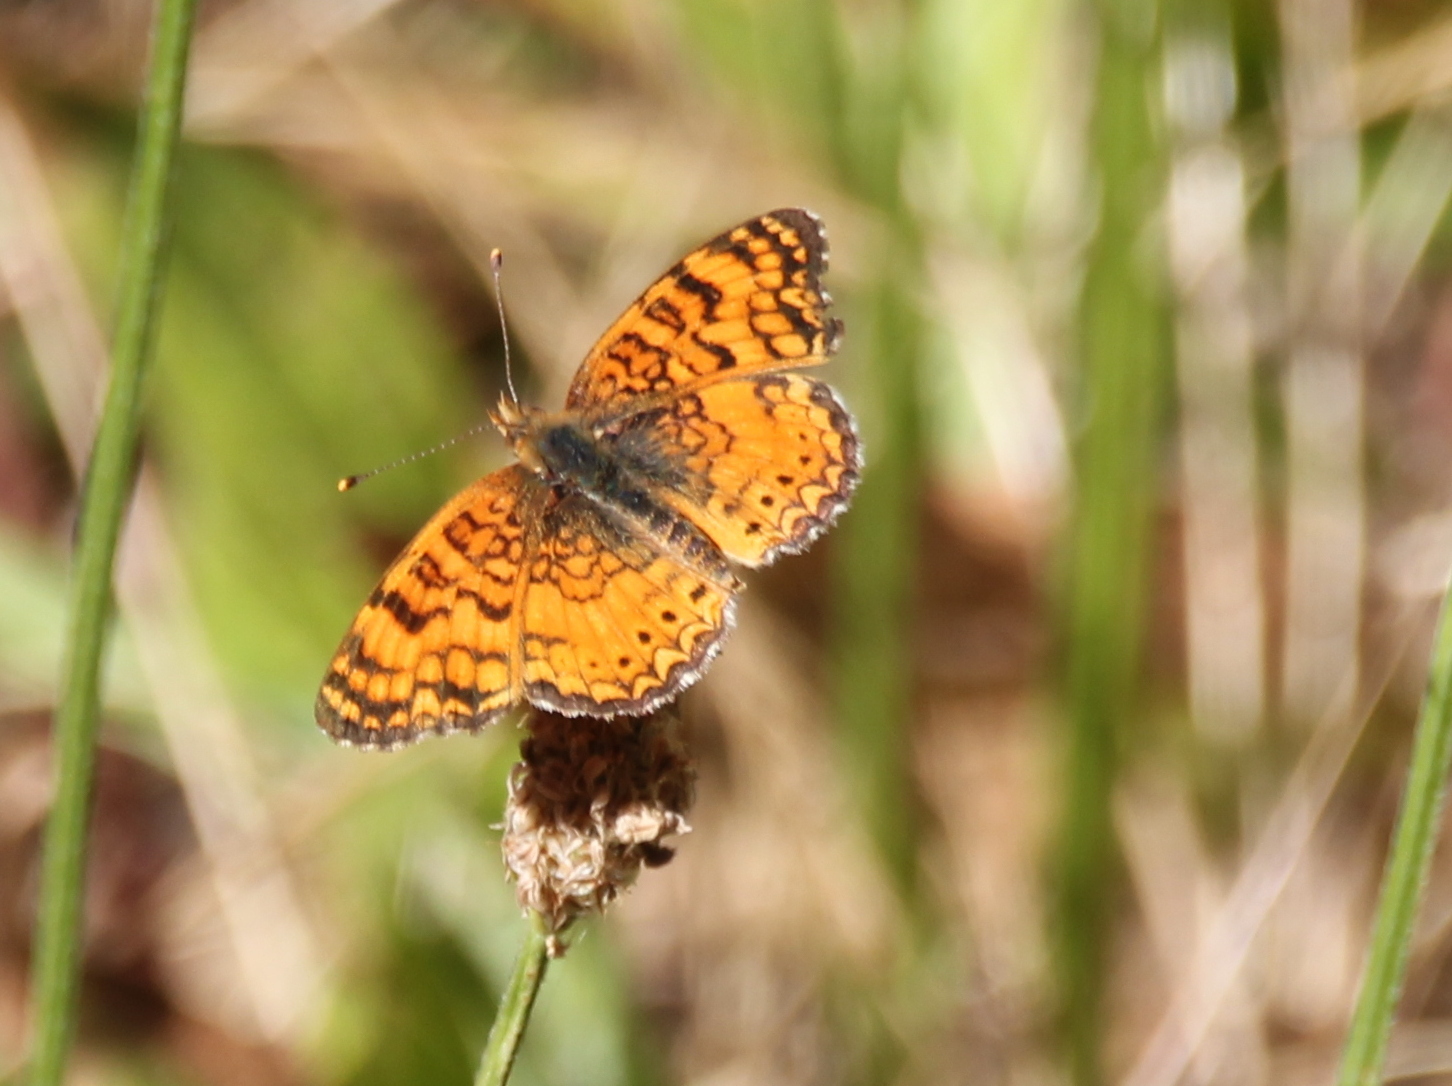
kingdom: Animalia
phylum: Arthropoda
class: Insecta
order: Lepidoptera
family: Nymphalidae
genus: Eresia
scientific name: Eresia aveyrona
